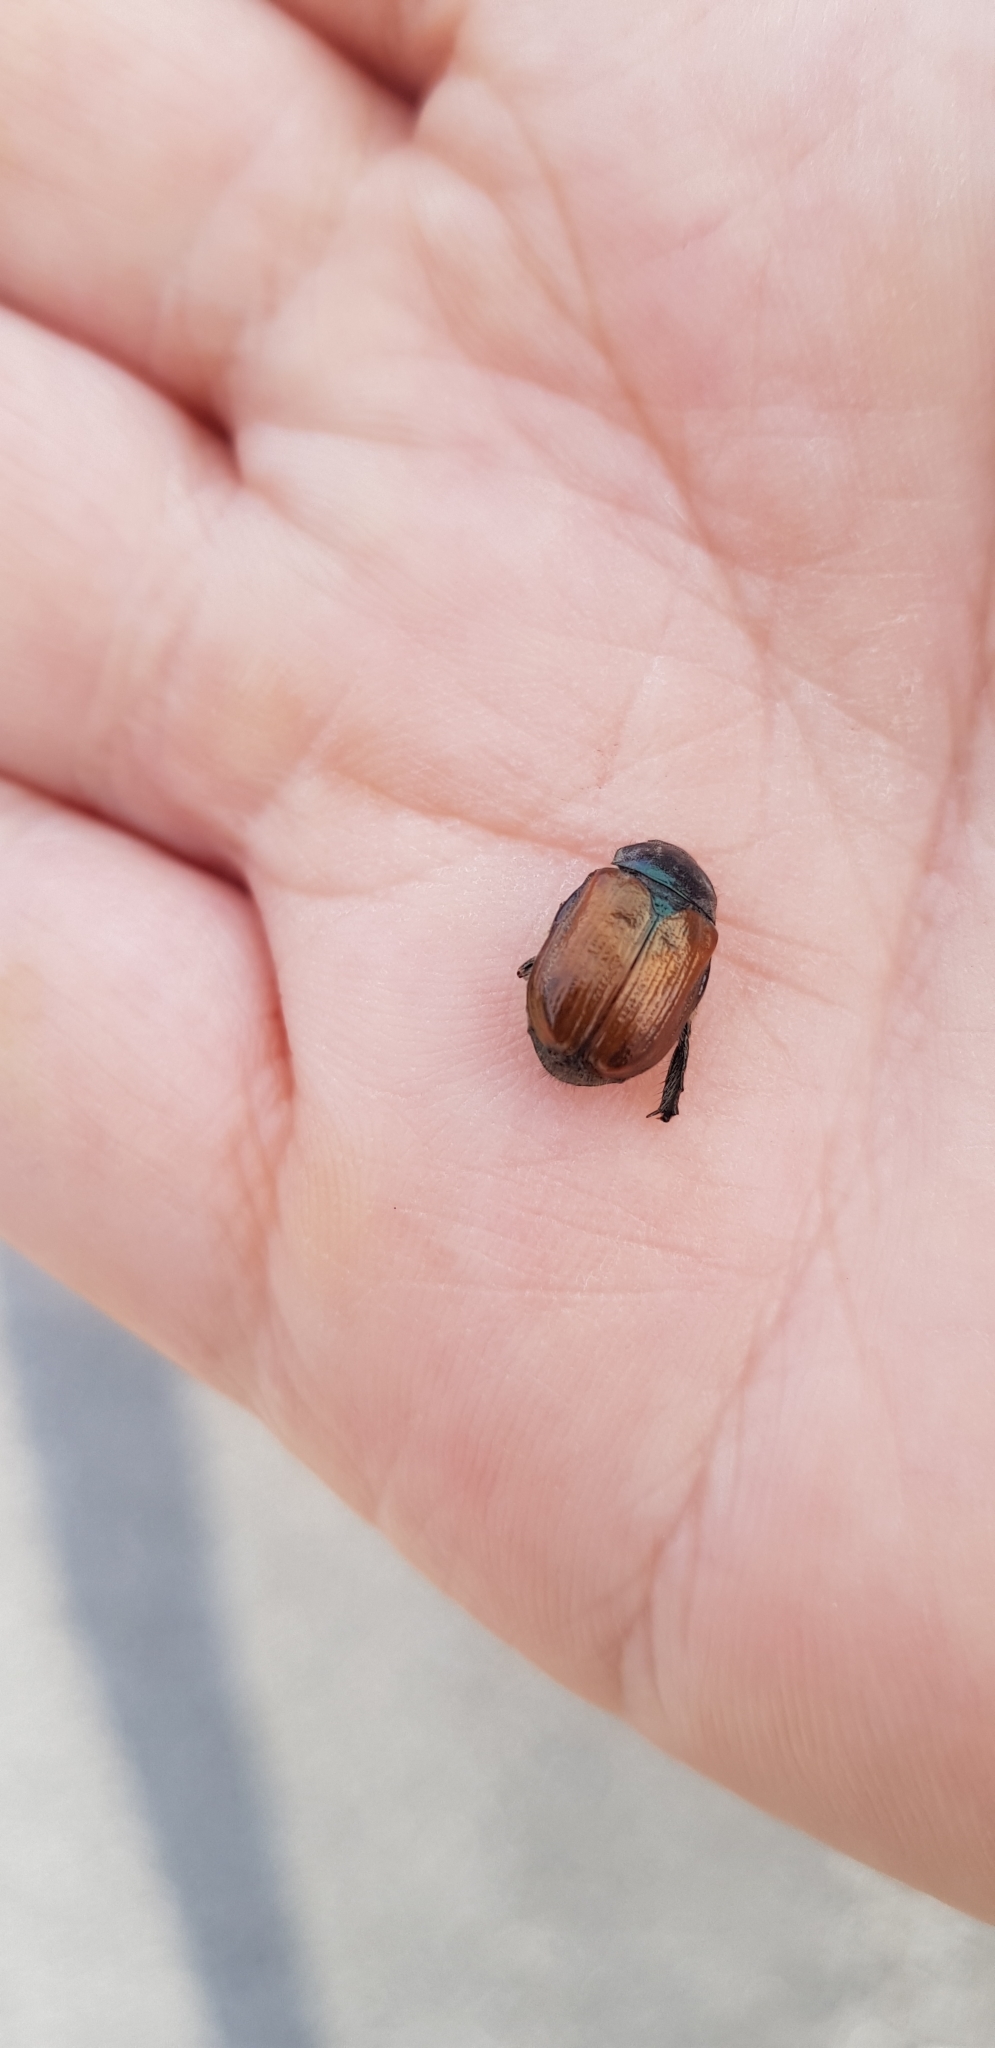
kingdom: Animalia
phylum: Arthropoda
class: Insecta
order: Coleoptera
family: Scarabaeidae
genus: Phyllopertha
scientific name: Phyllopertha horticola
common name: Garden chafer
